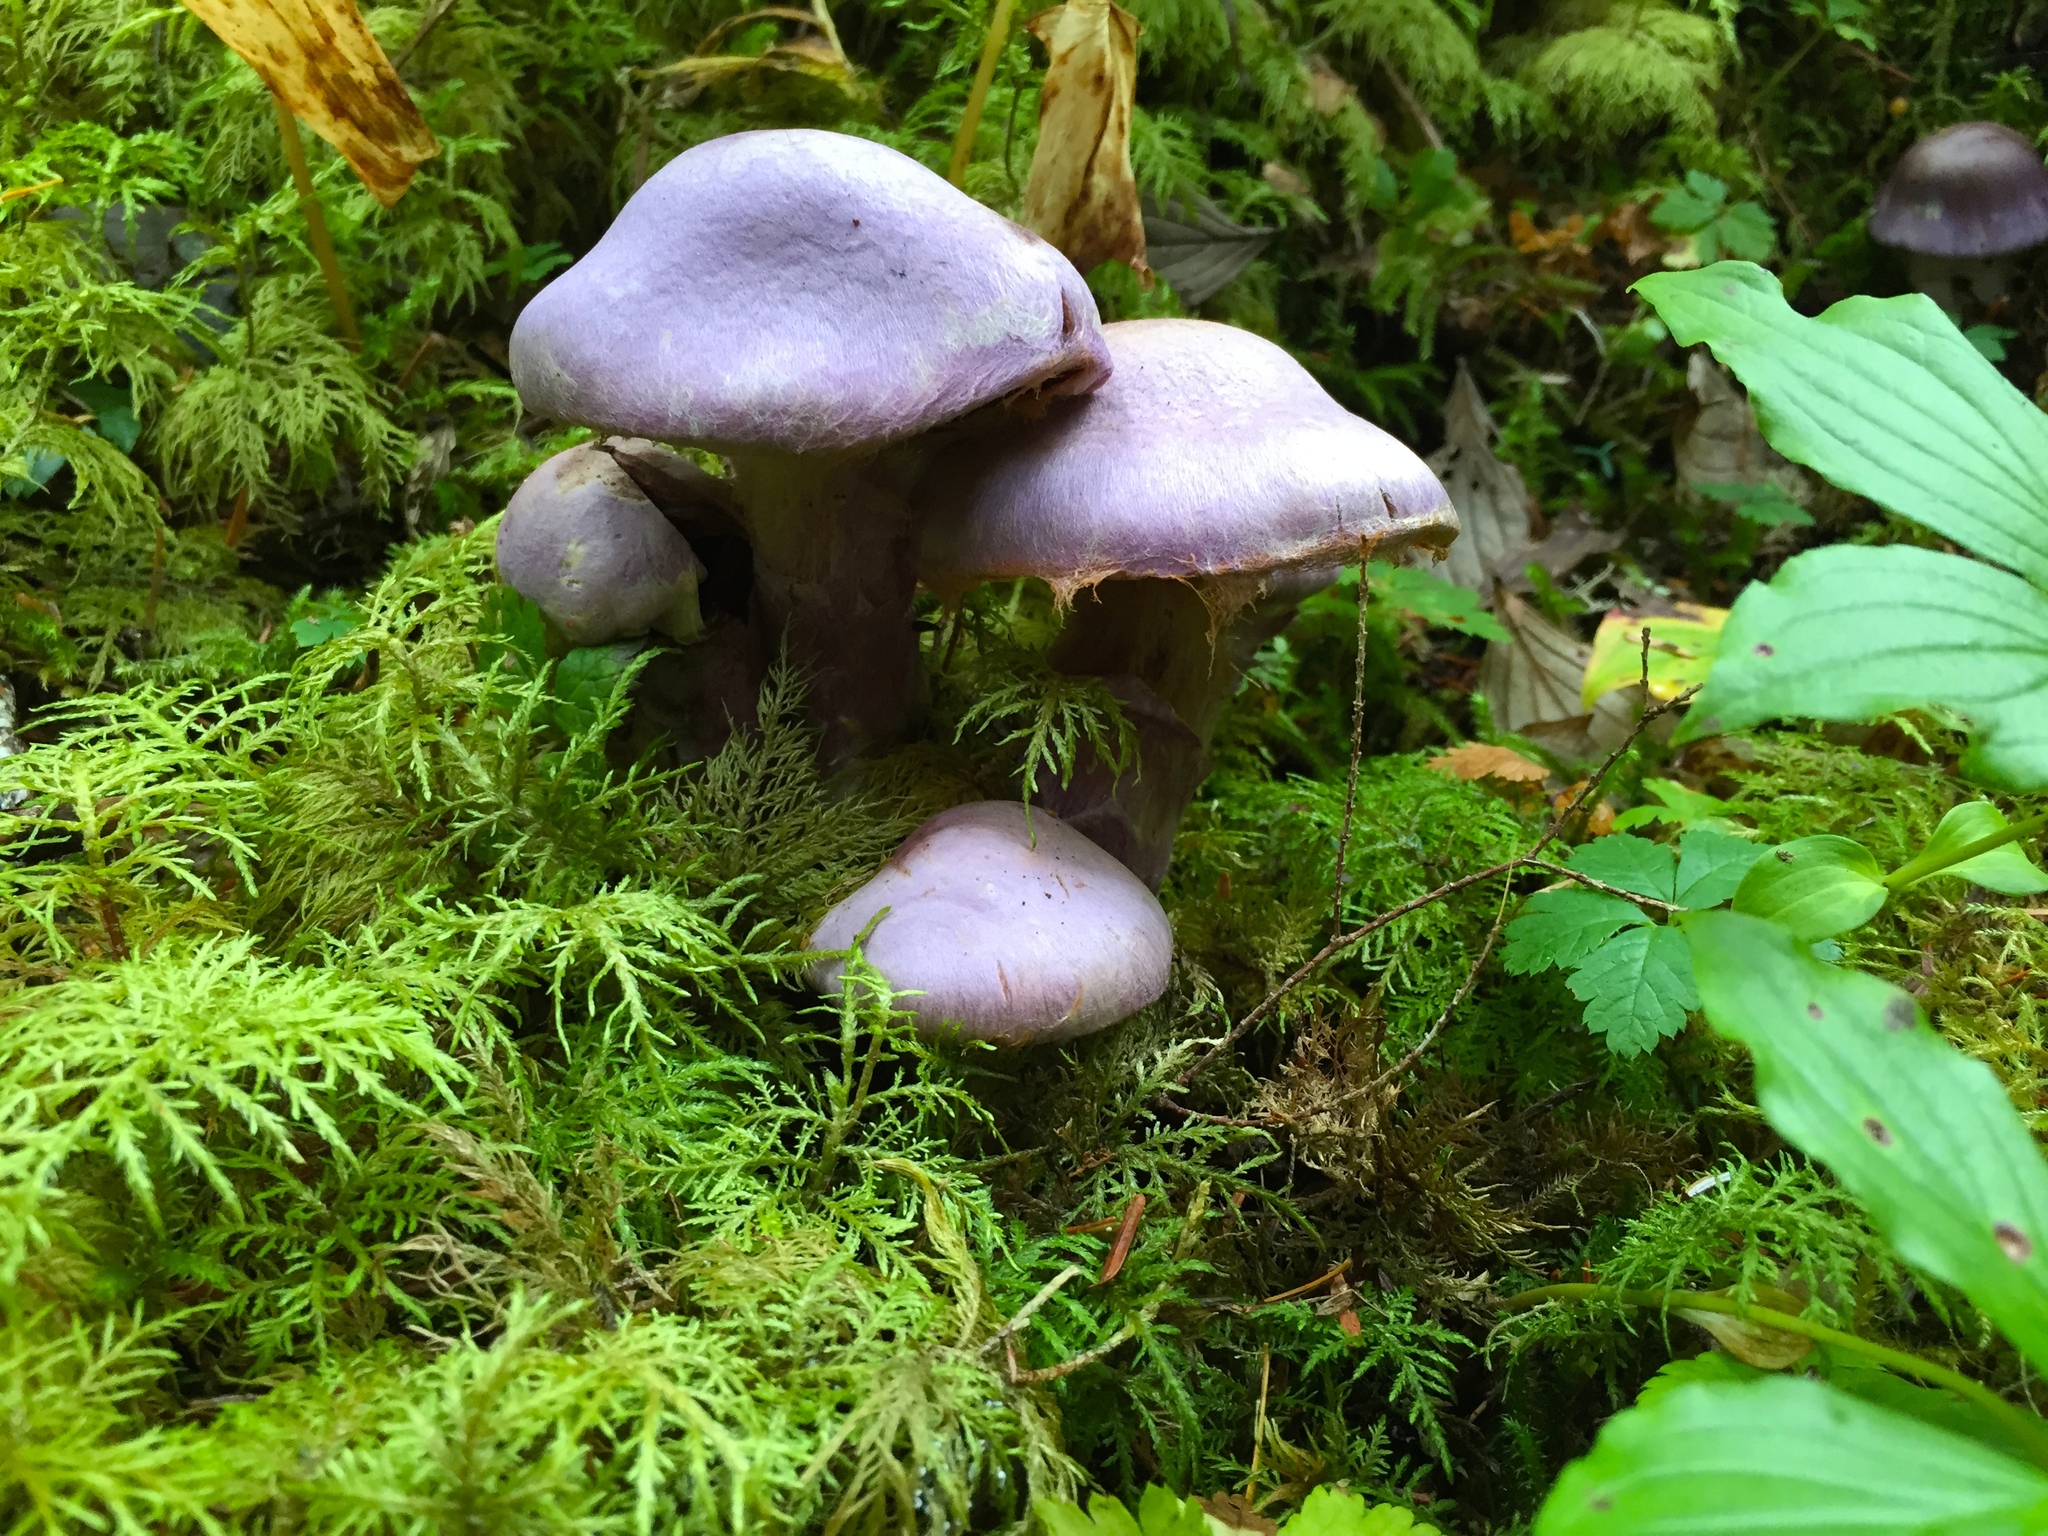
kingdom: Fungi
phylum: Basidiomycota
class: Agaricomycetes
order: Agaricales
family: Cortinariaceae
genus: Cortinarius
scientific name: Cortinarius traganus
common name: Gassy webcap
